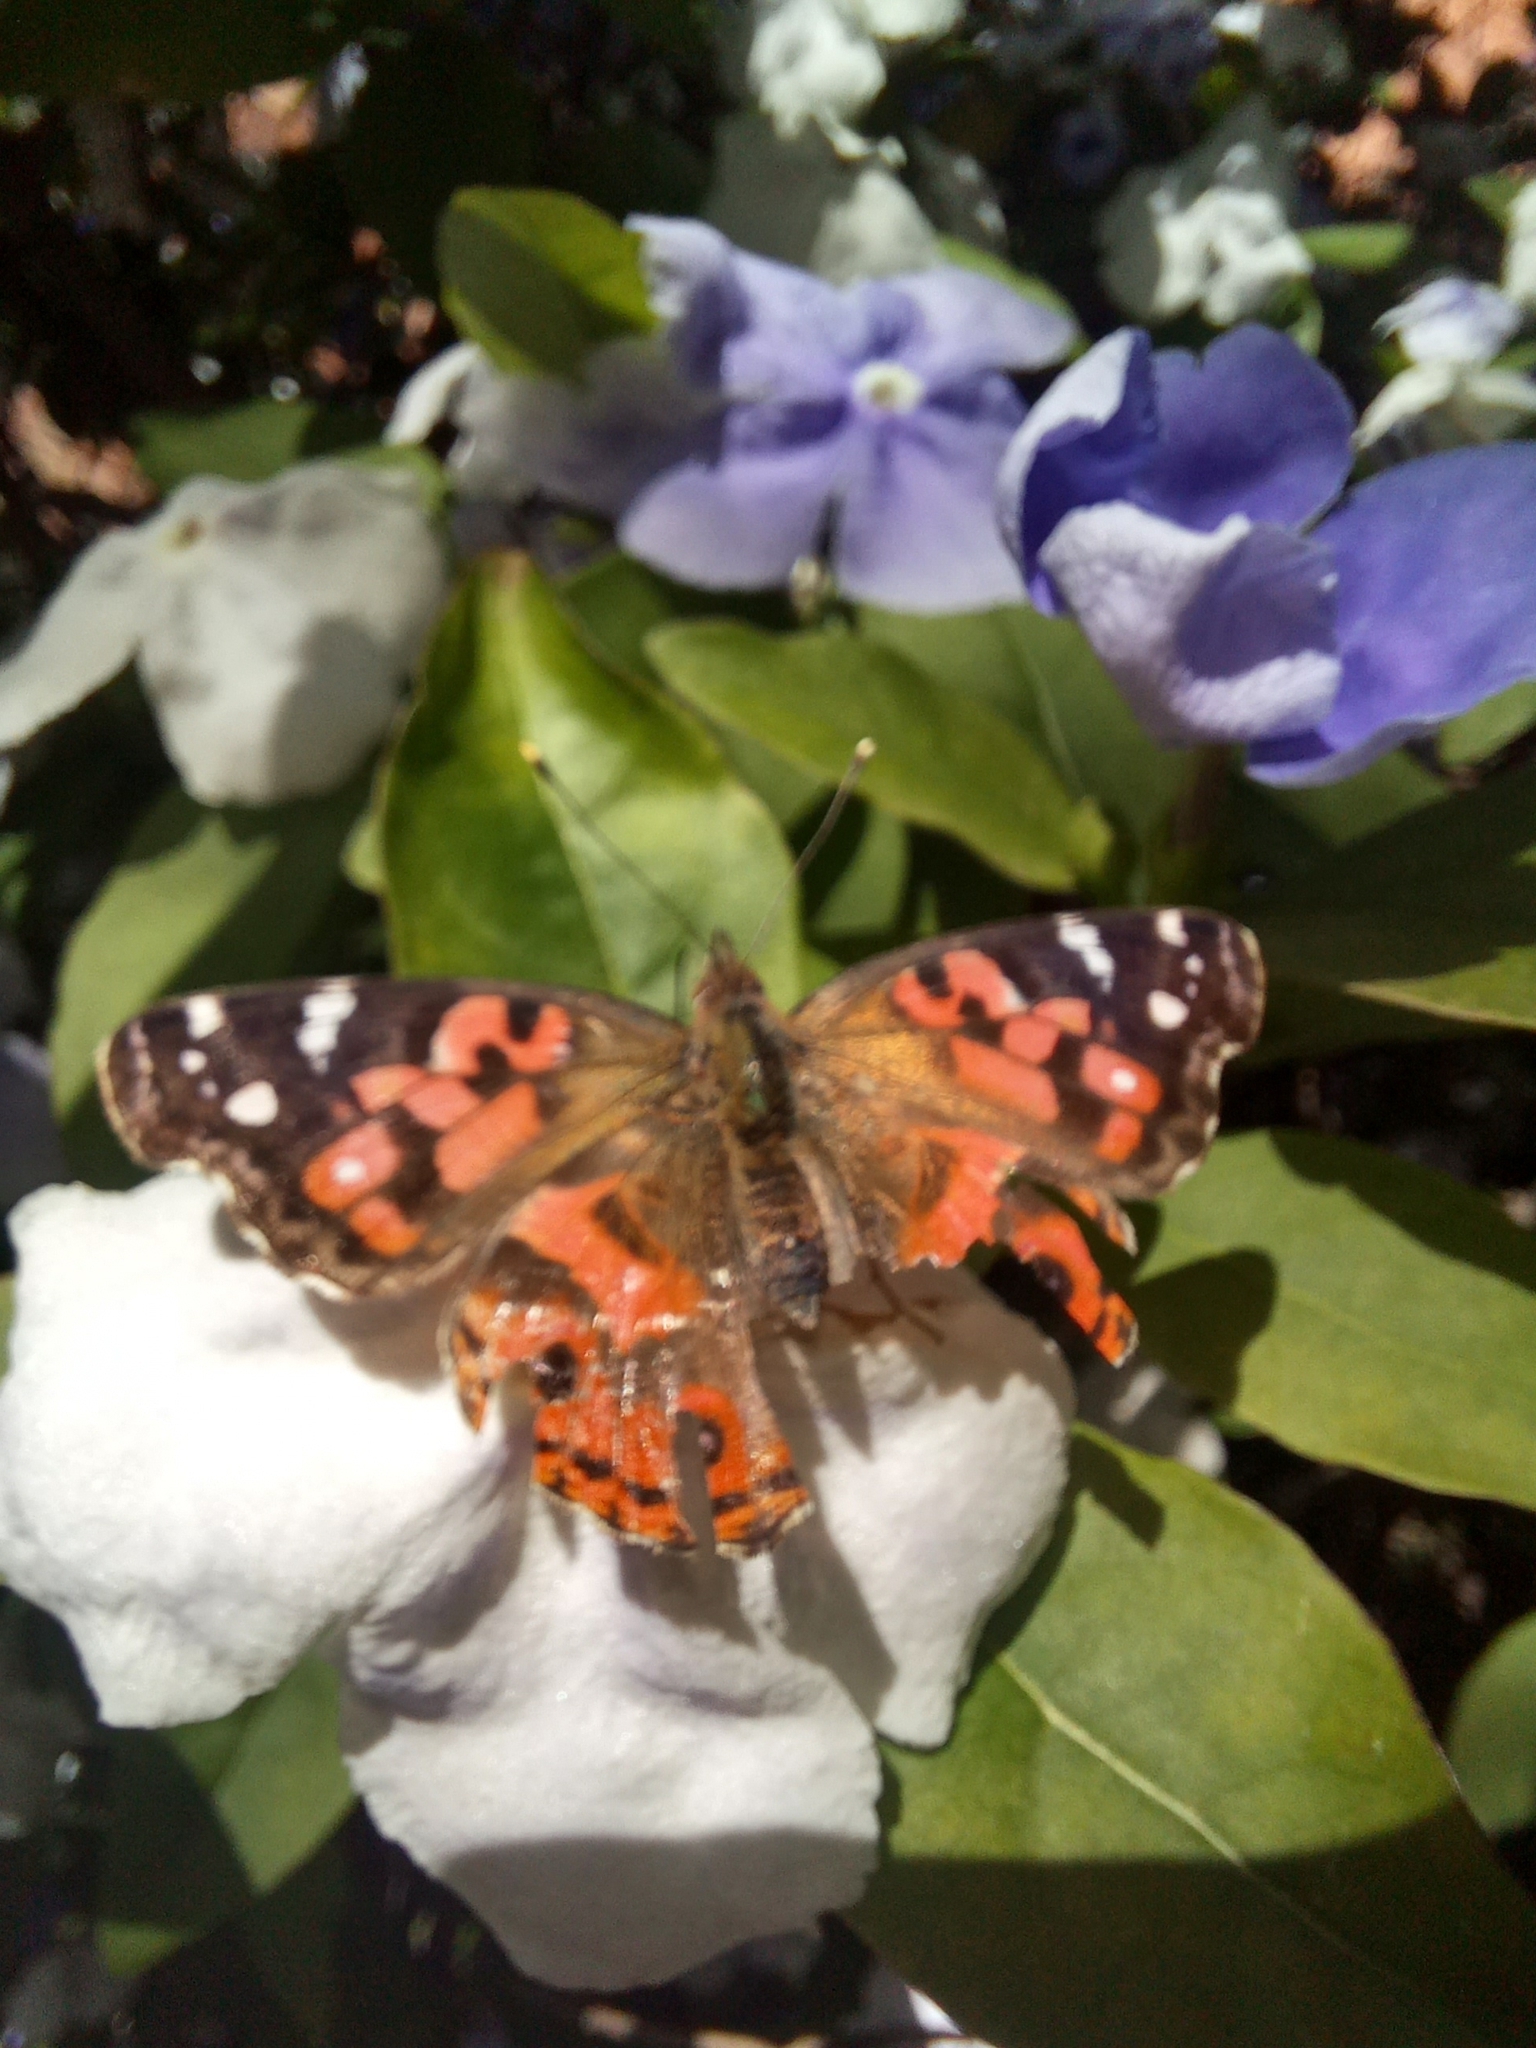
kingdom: Animalia
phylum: Arthropoda
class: Insecta
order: Lepidoptera
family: Nymphalidae
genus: Vanessa
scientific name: Vanessa braziliensis
